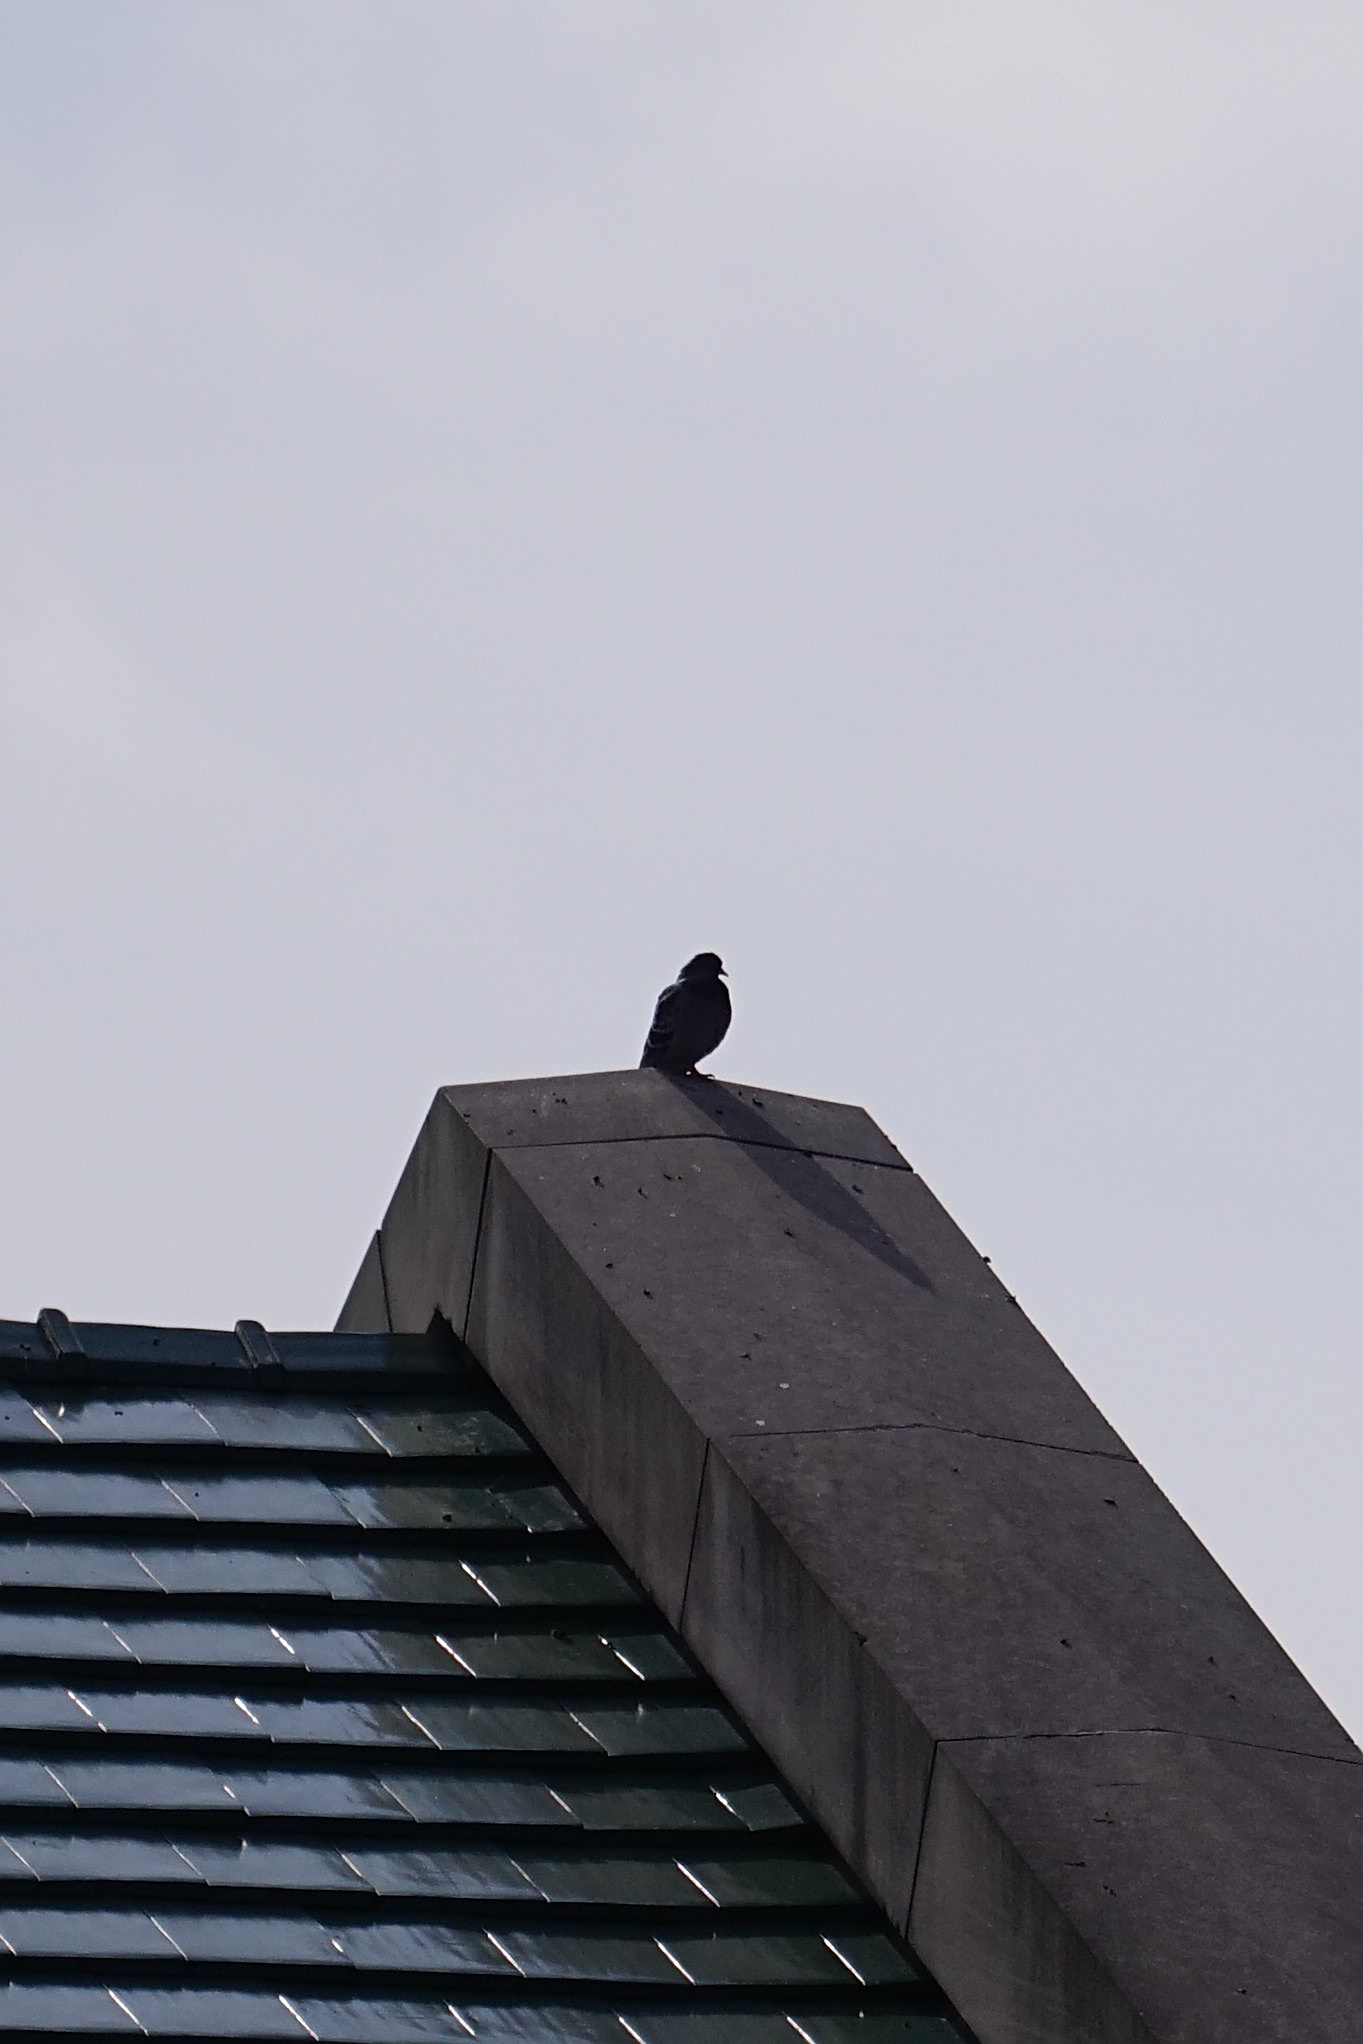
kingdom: Animalia
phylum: Chordata
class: Aves
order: Columbiformes
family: Columbidae
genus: Columba
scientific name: Columba livia
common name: Rock pigeon
